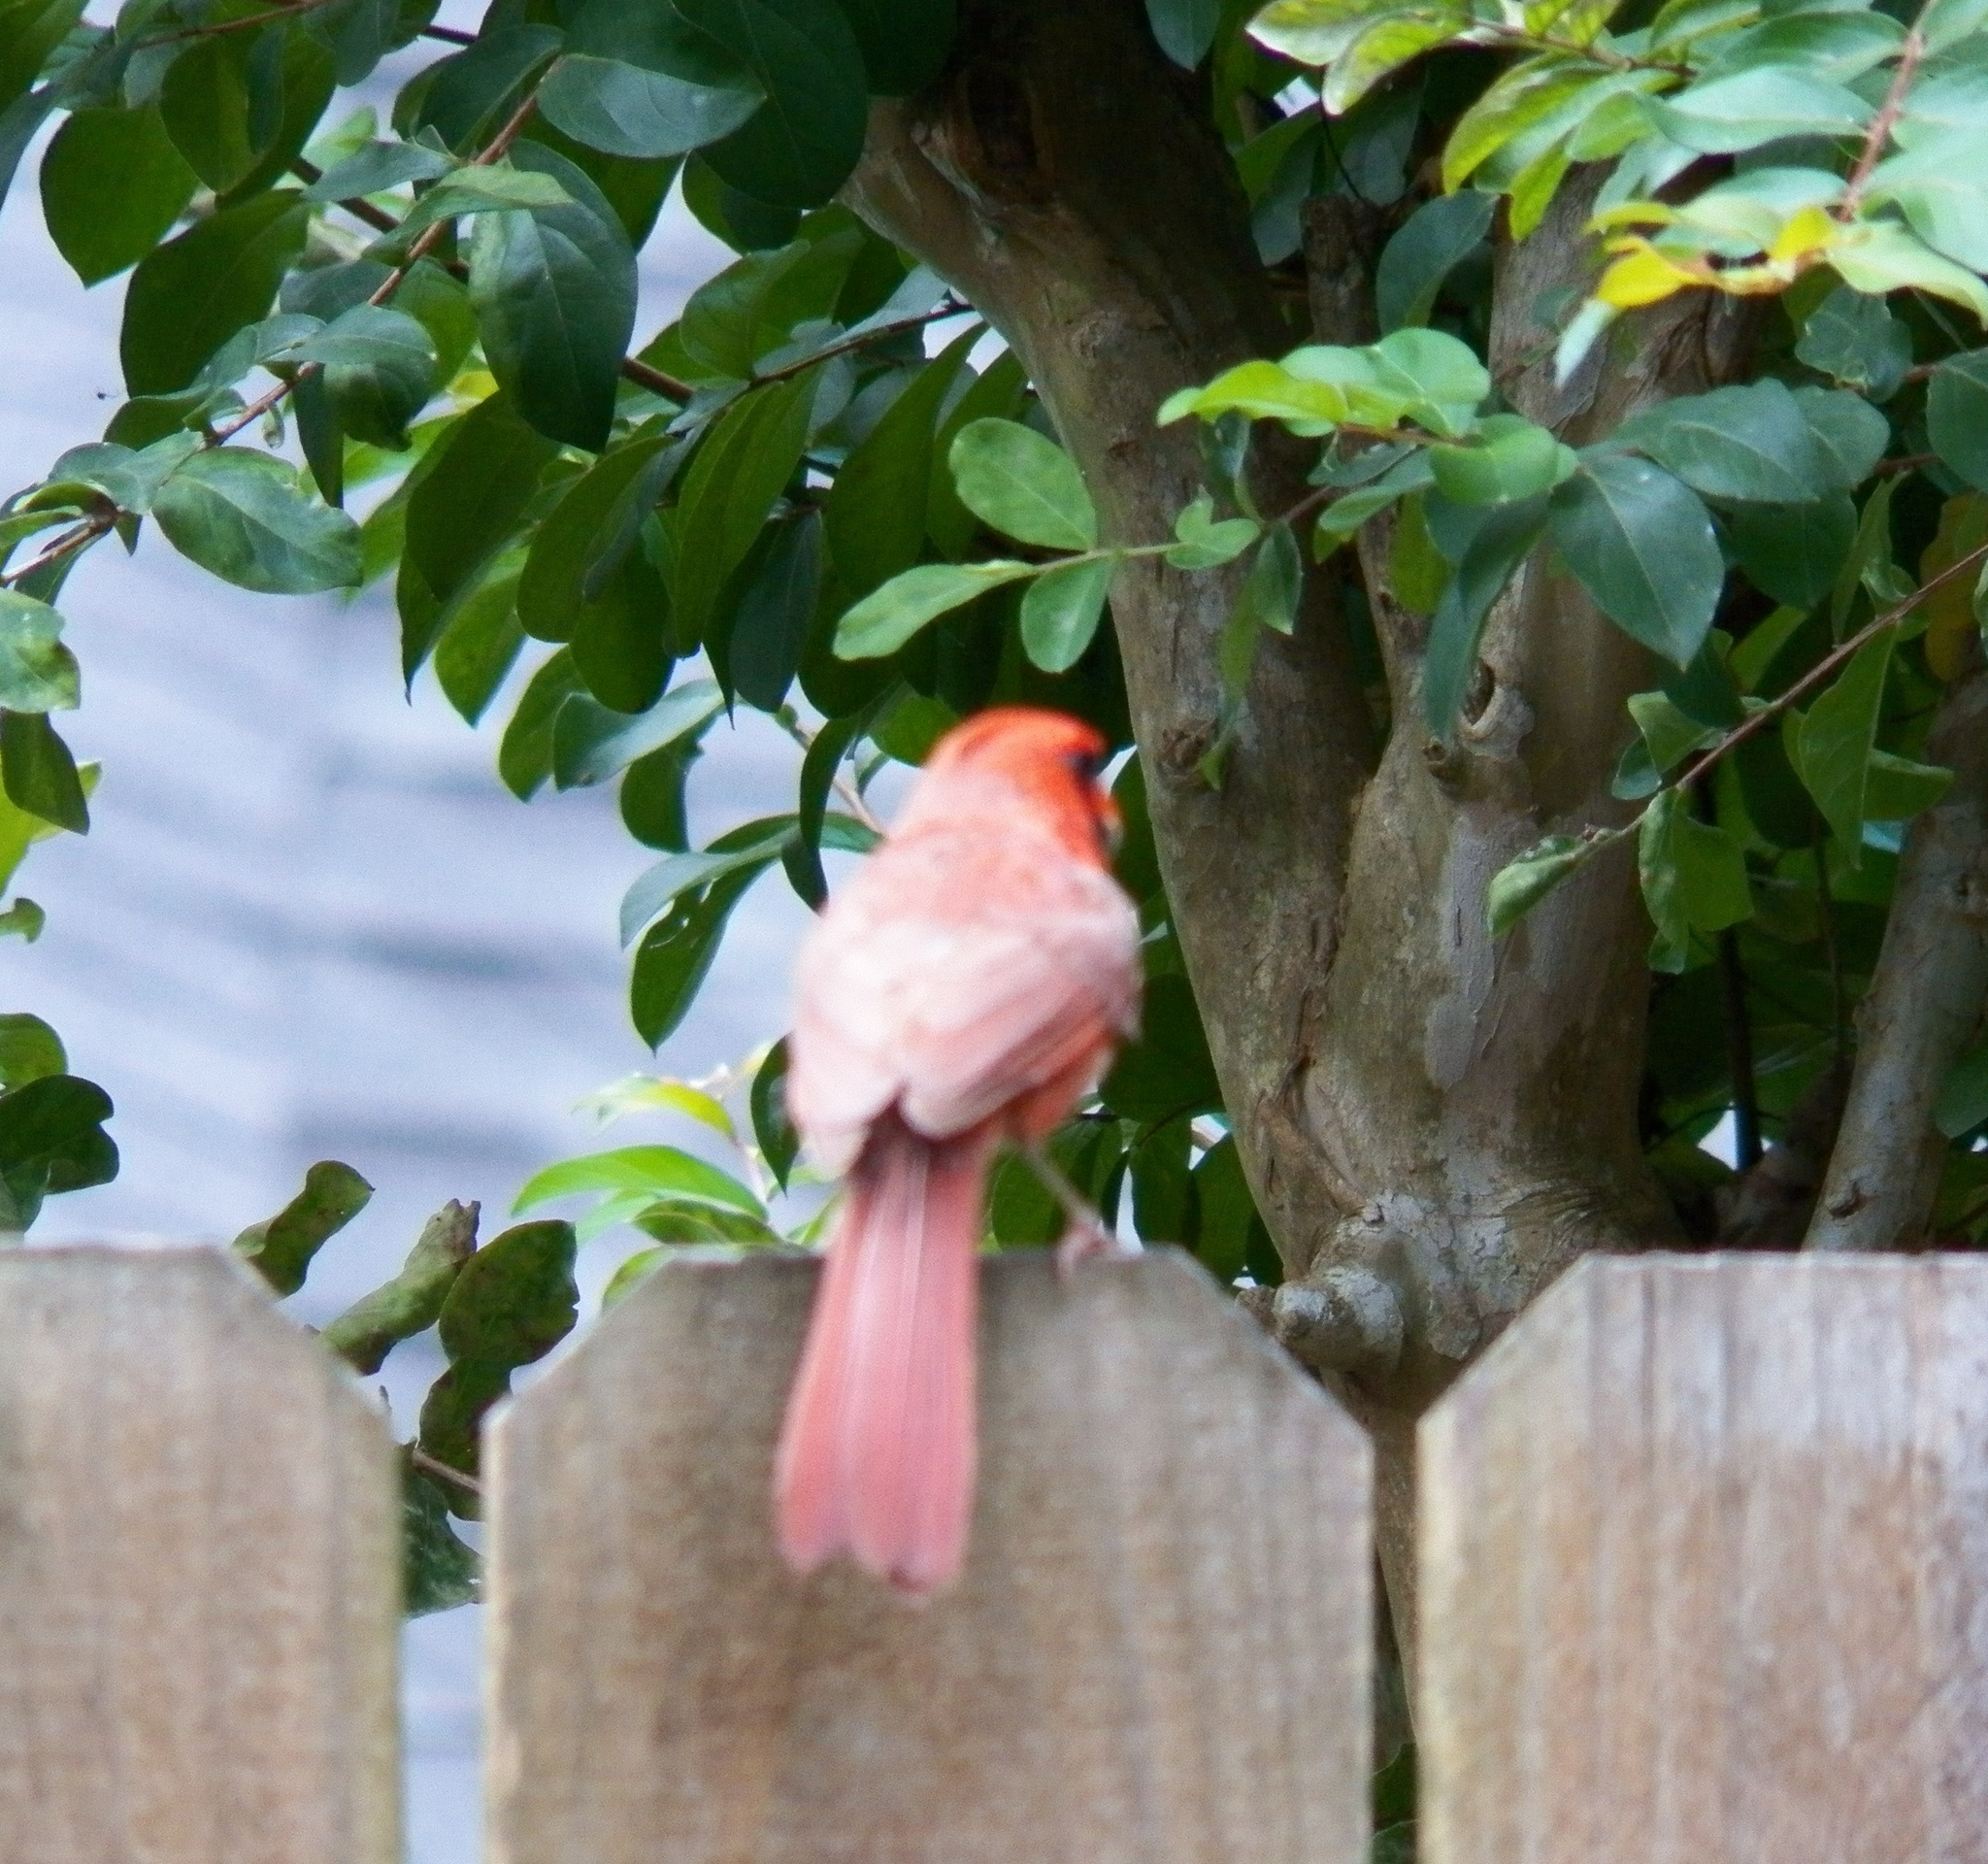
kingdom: Animalia
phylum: Chordata
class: Aves
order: Passeriformes
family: Cardinalidae
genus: Cardinalis
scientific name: Cardinalis cardinalis
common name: Northern cardinal
